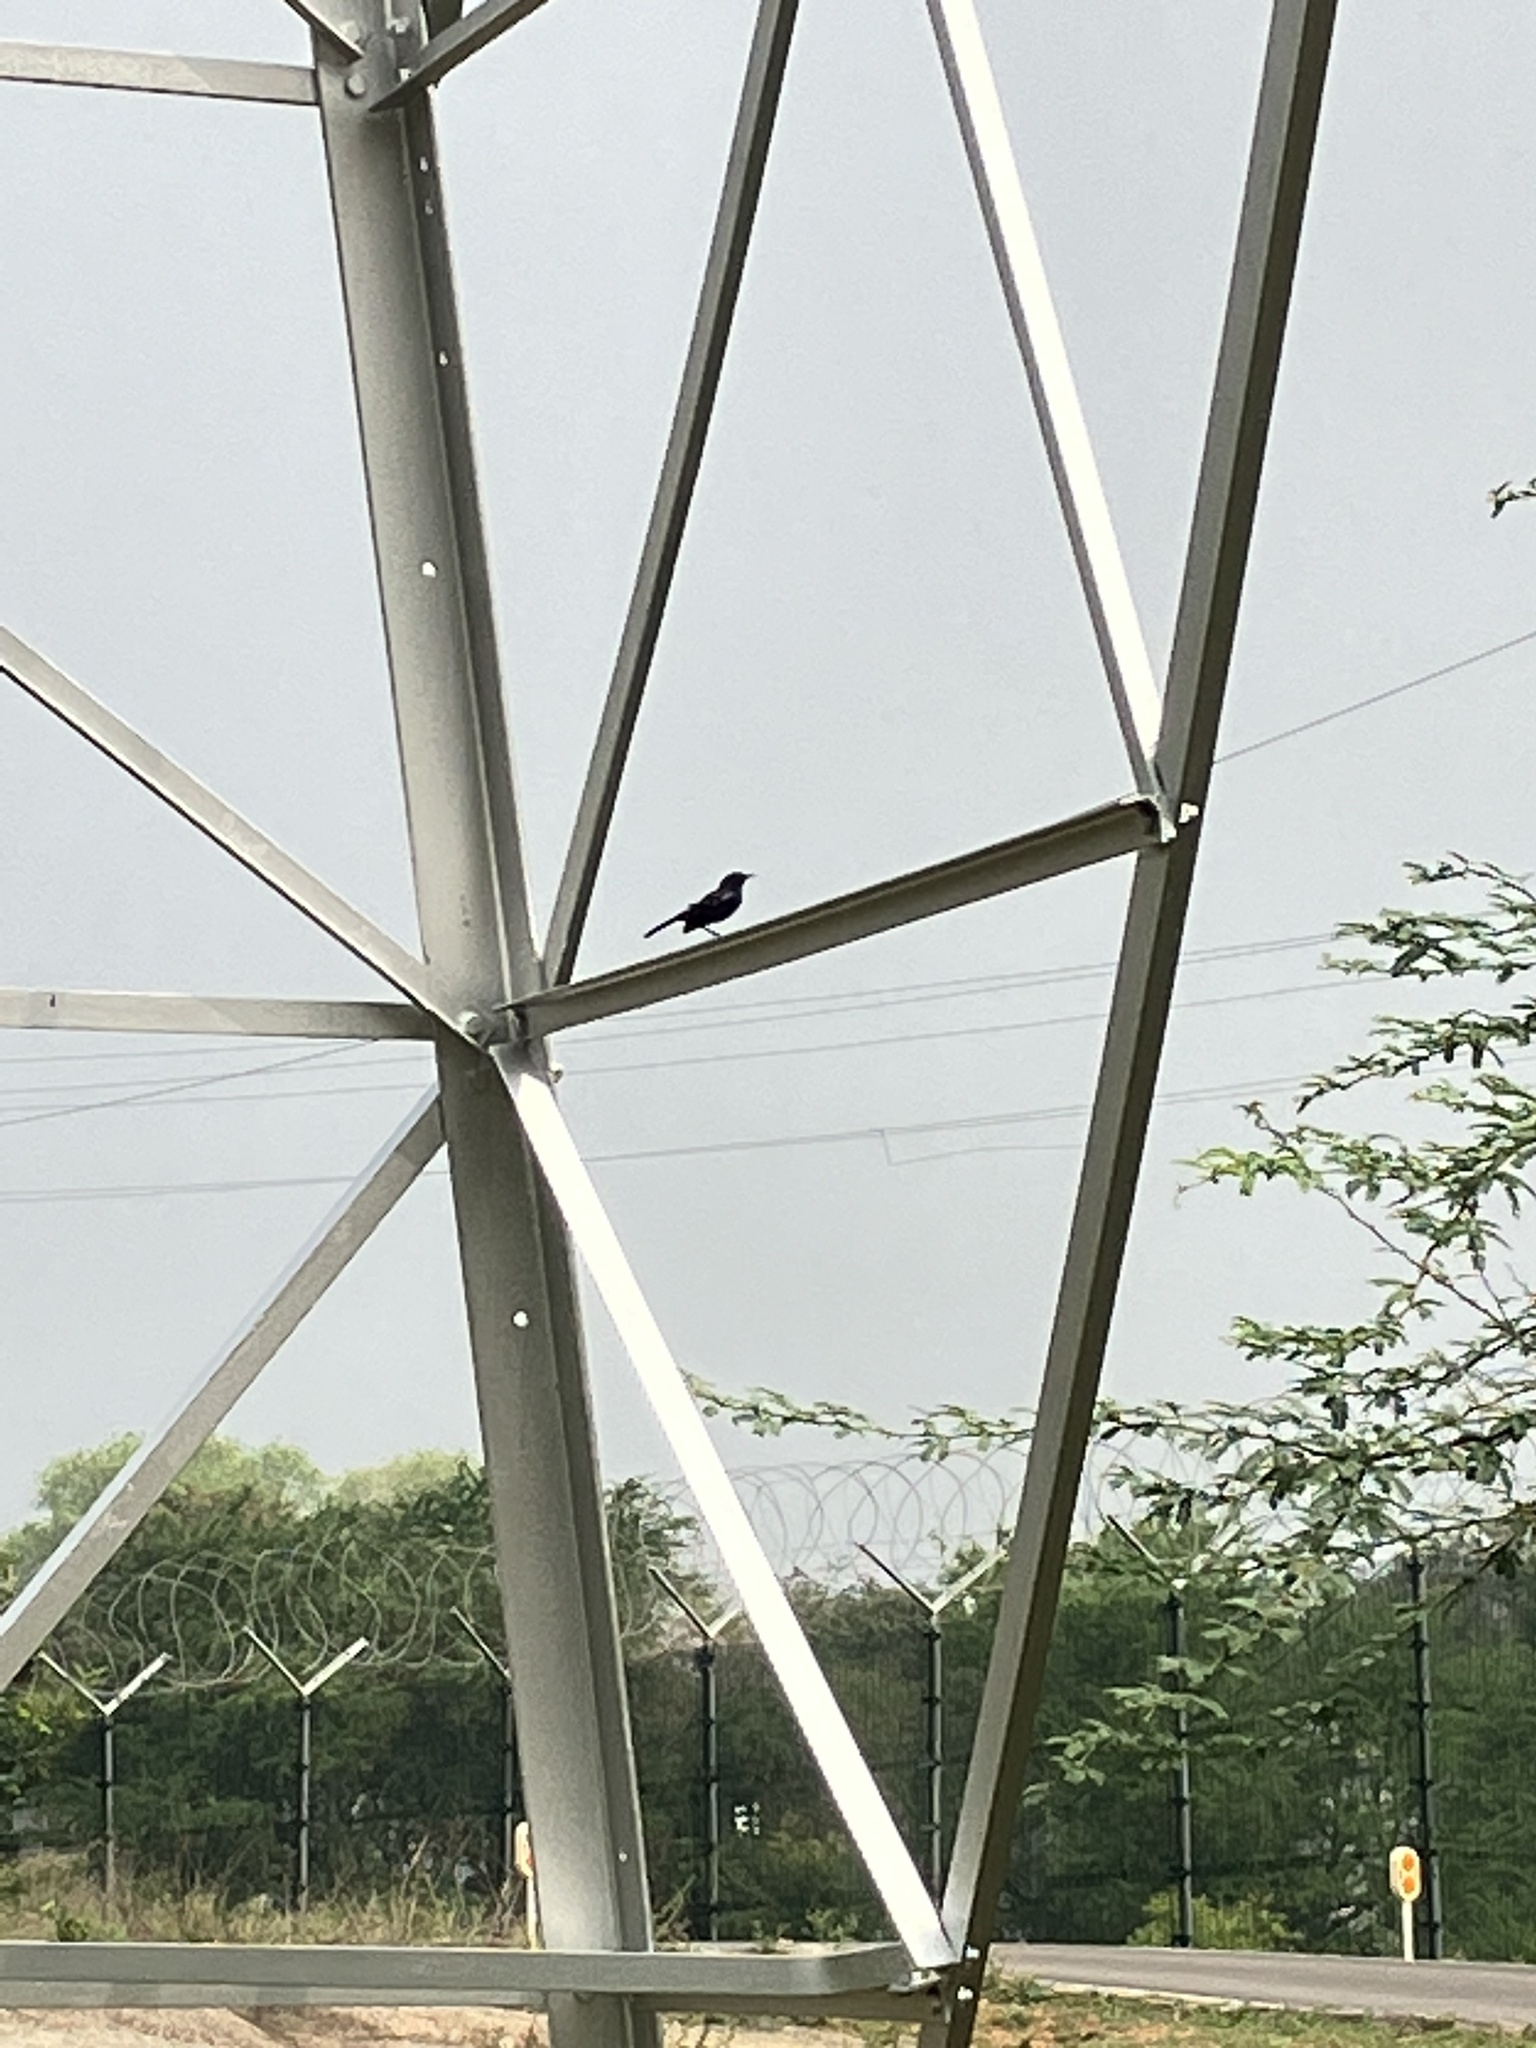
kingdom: Animalia
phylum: Chordata
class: Aves
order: Passeriformes
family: Muscicapidae
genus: Saxicoloides
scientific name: Saxicoloides fulicatus
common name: Indian robin
